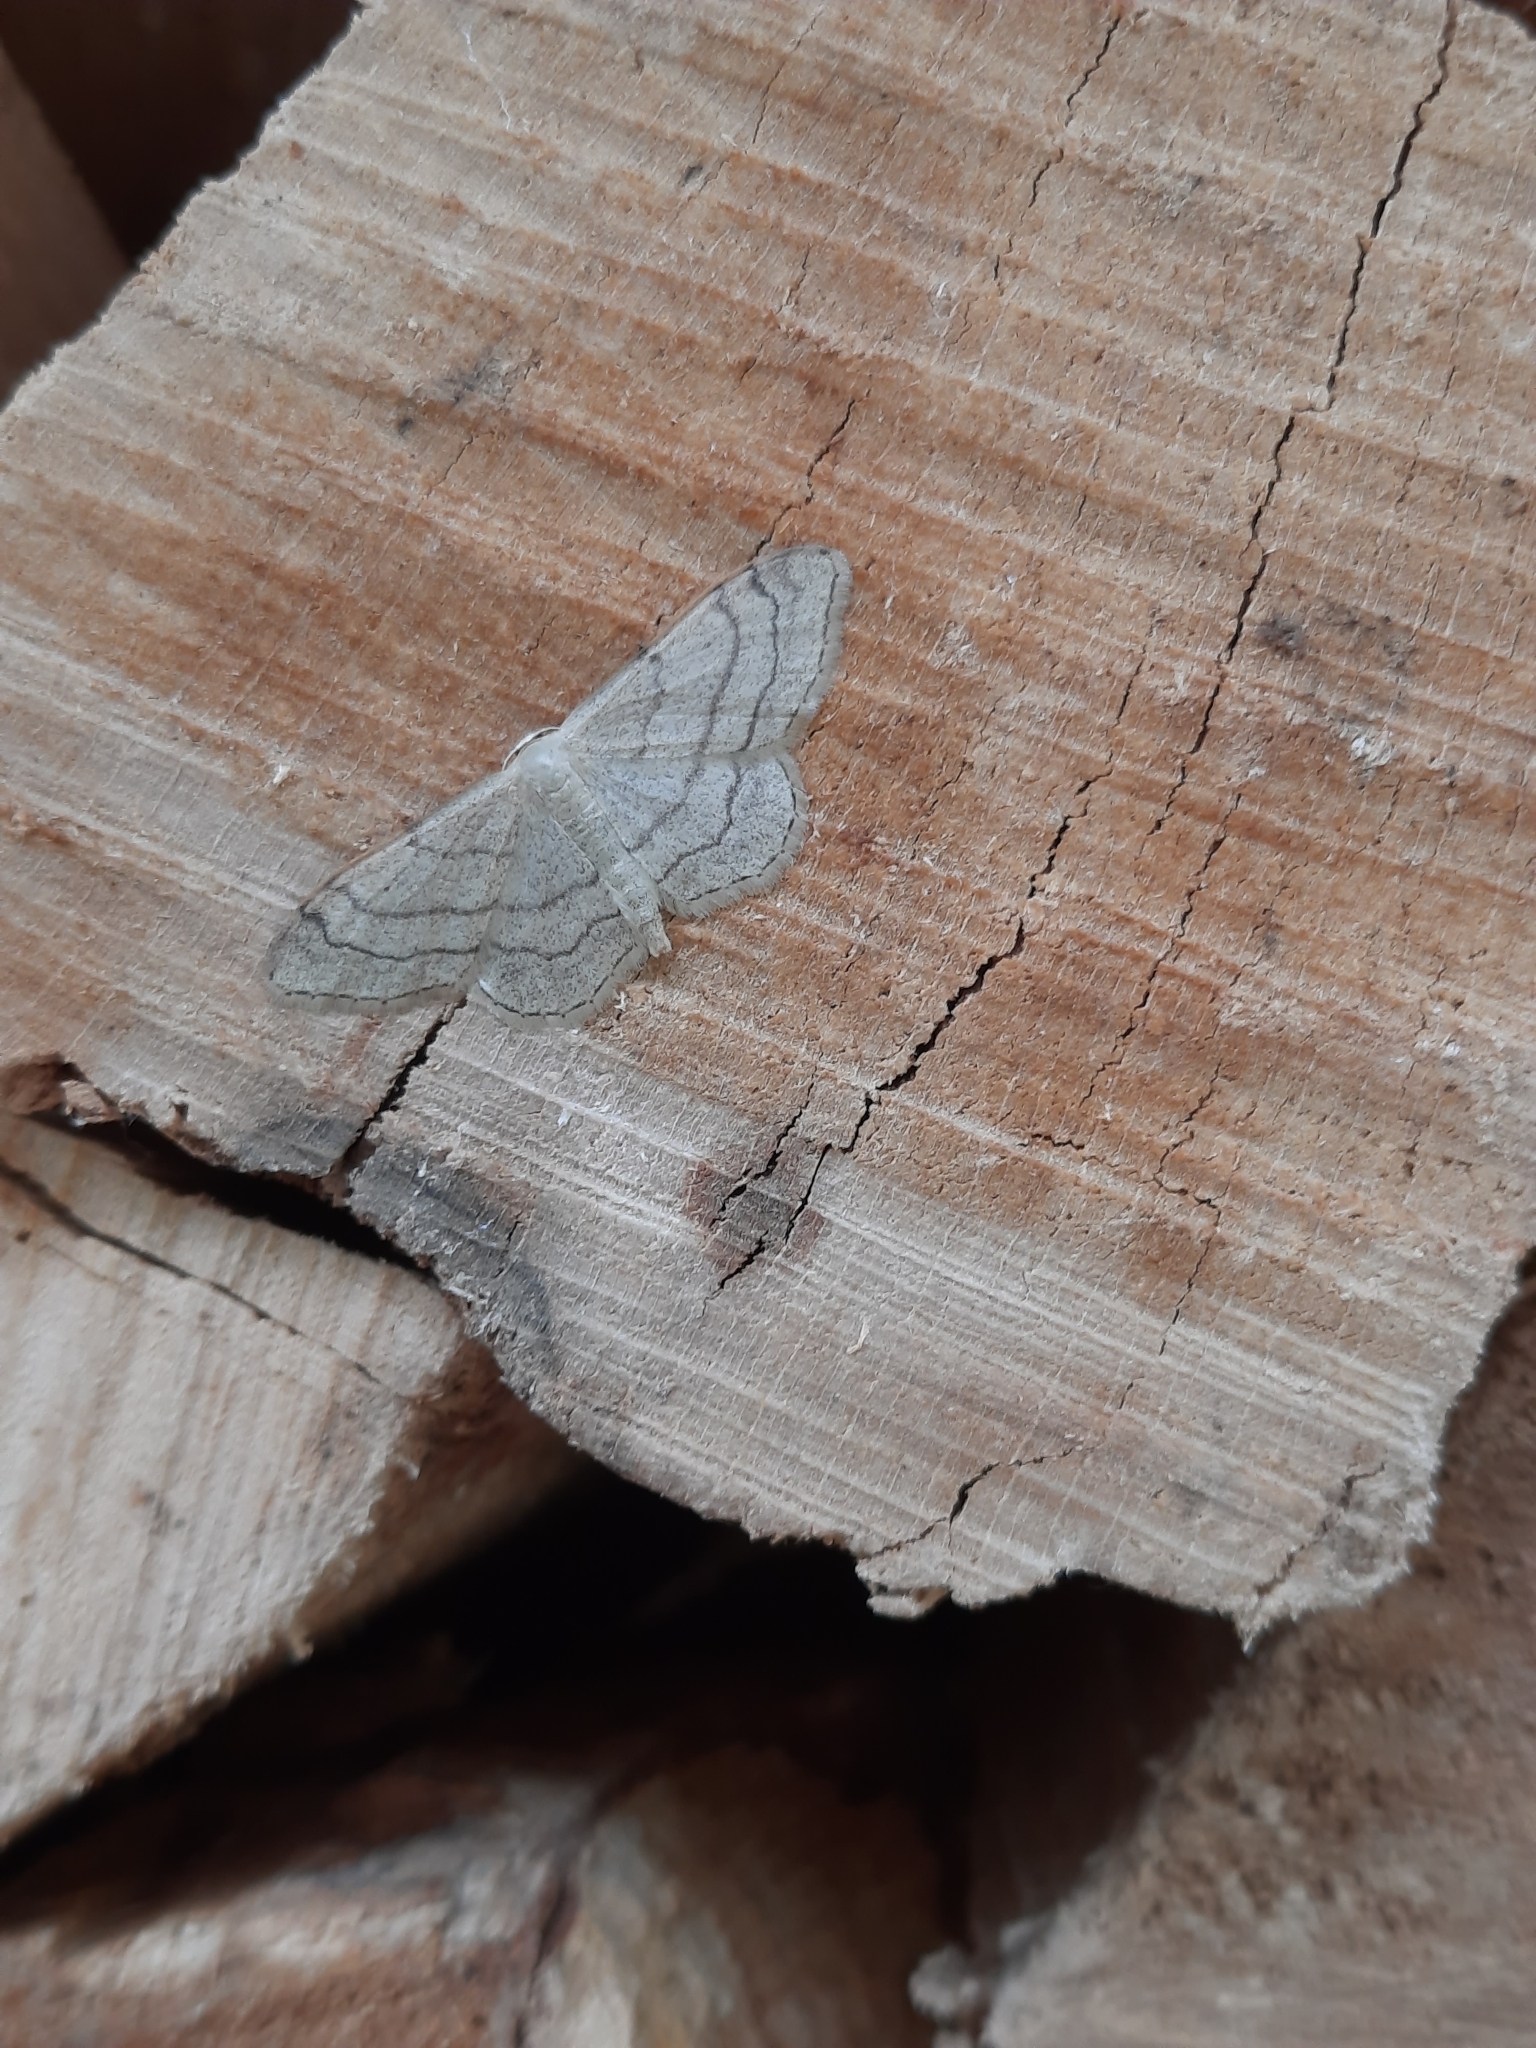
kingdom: Animalia
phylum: Arthropoda
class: Insecta
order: Lepidoptera
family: Geometridae
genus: Idaea
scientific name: Idaea aversata
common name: Riband wave
